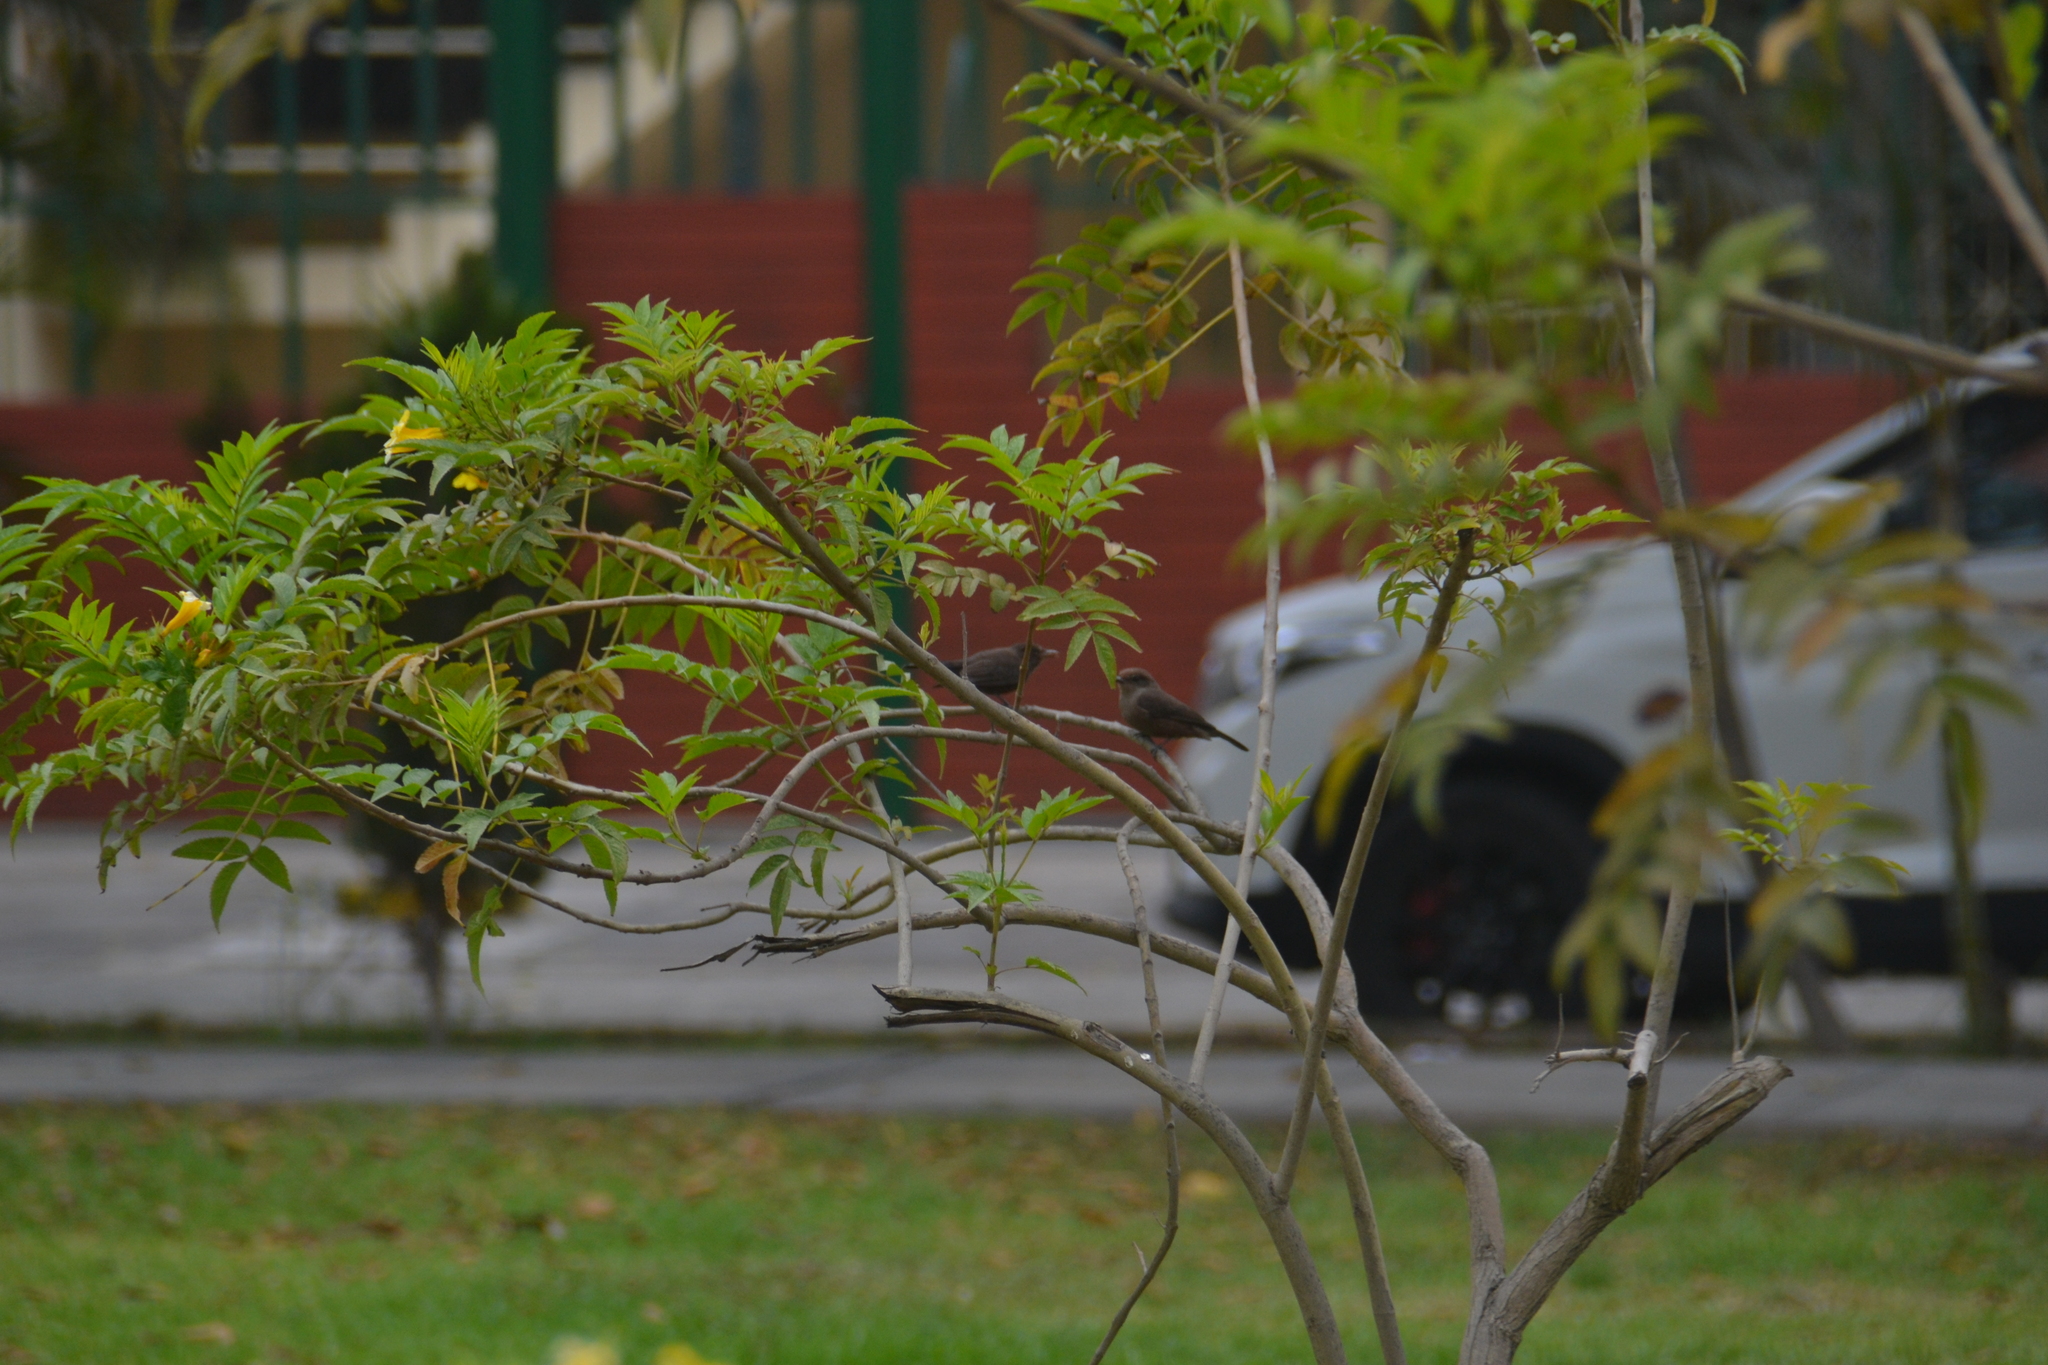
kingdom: Animalia
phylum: Chordata
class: Aves
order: Passeriformes
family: Tyrannidae
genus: Pyrocephalus
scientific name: Pyrocephalus rubinus
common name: Vermilion flycatcher
